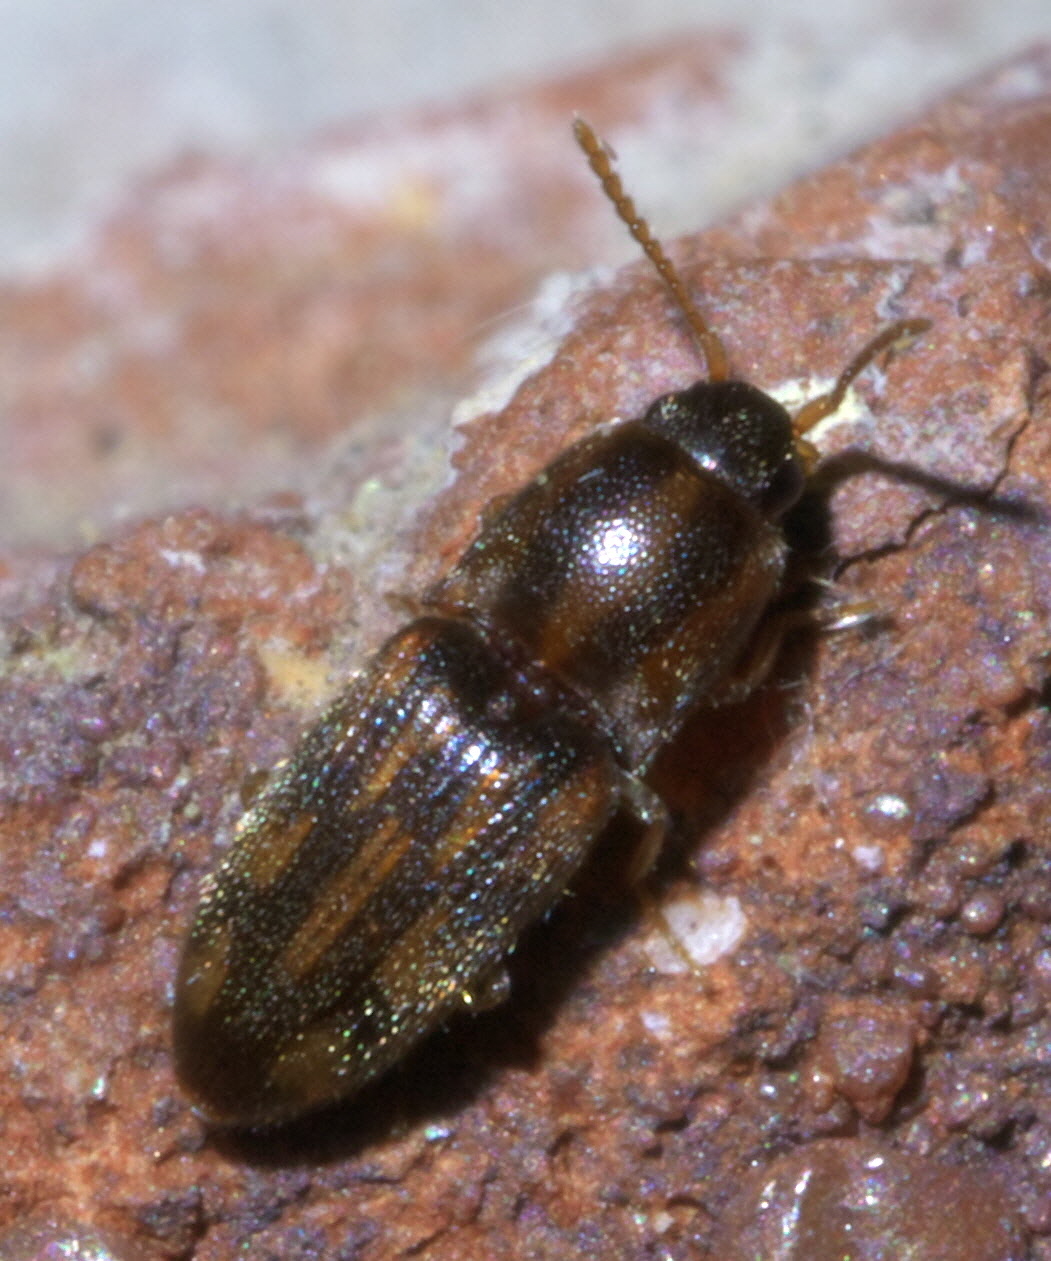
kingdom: Animalia
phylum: Arthropoda
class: Insecta
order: Coleoptera
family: Elateridae
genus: Monocrepidius
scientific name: Monocrepidius bellus
